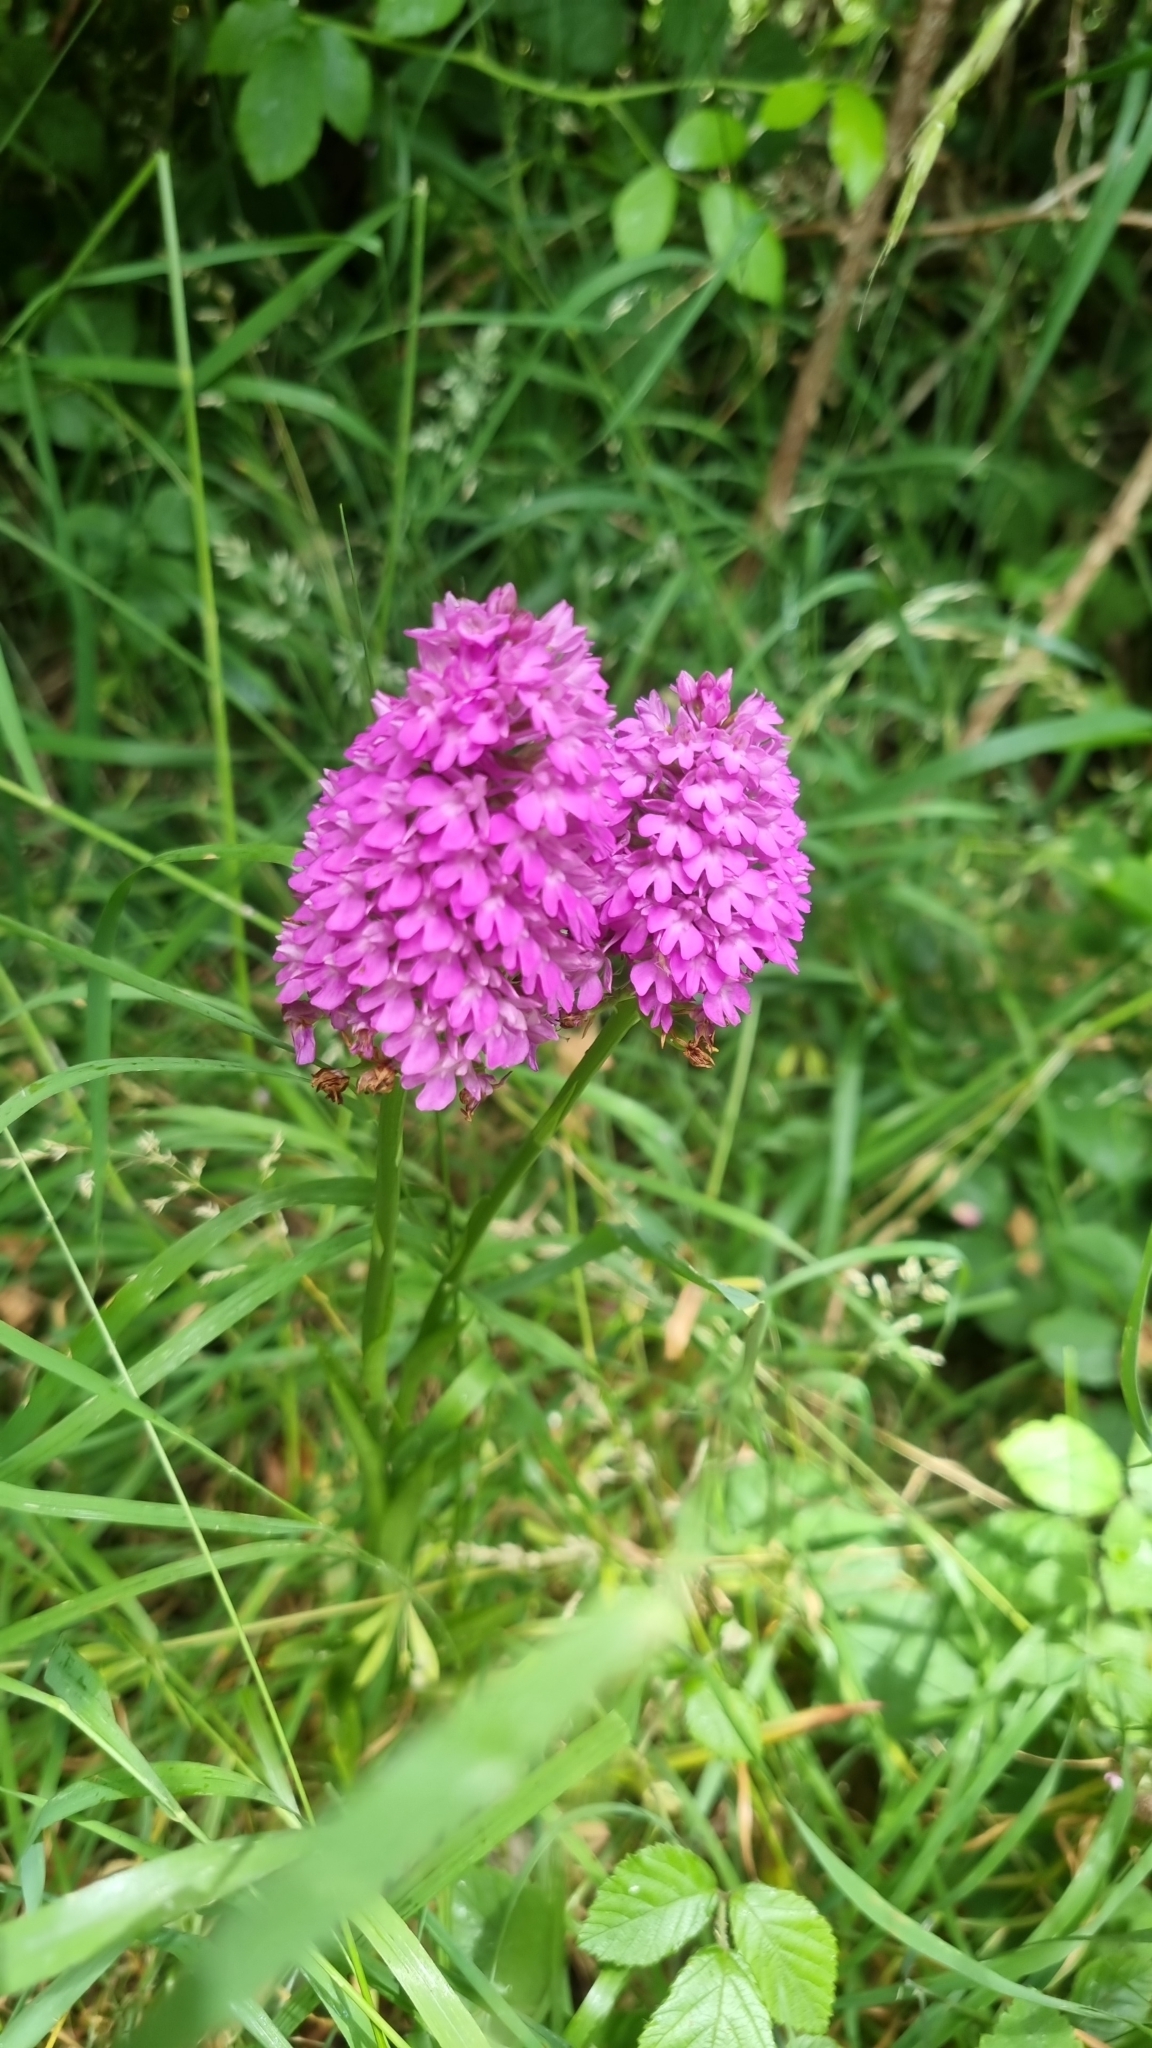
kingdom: Plantae
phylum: Tracheophyta
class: Liliopsida
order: Asparagales
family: Orchidaceae
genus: Anacamptis
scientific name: Anacamptis pyramidalis
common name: Pyramidal orchid
